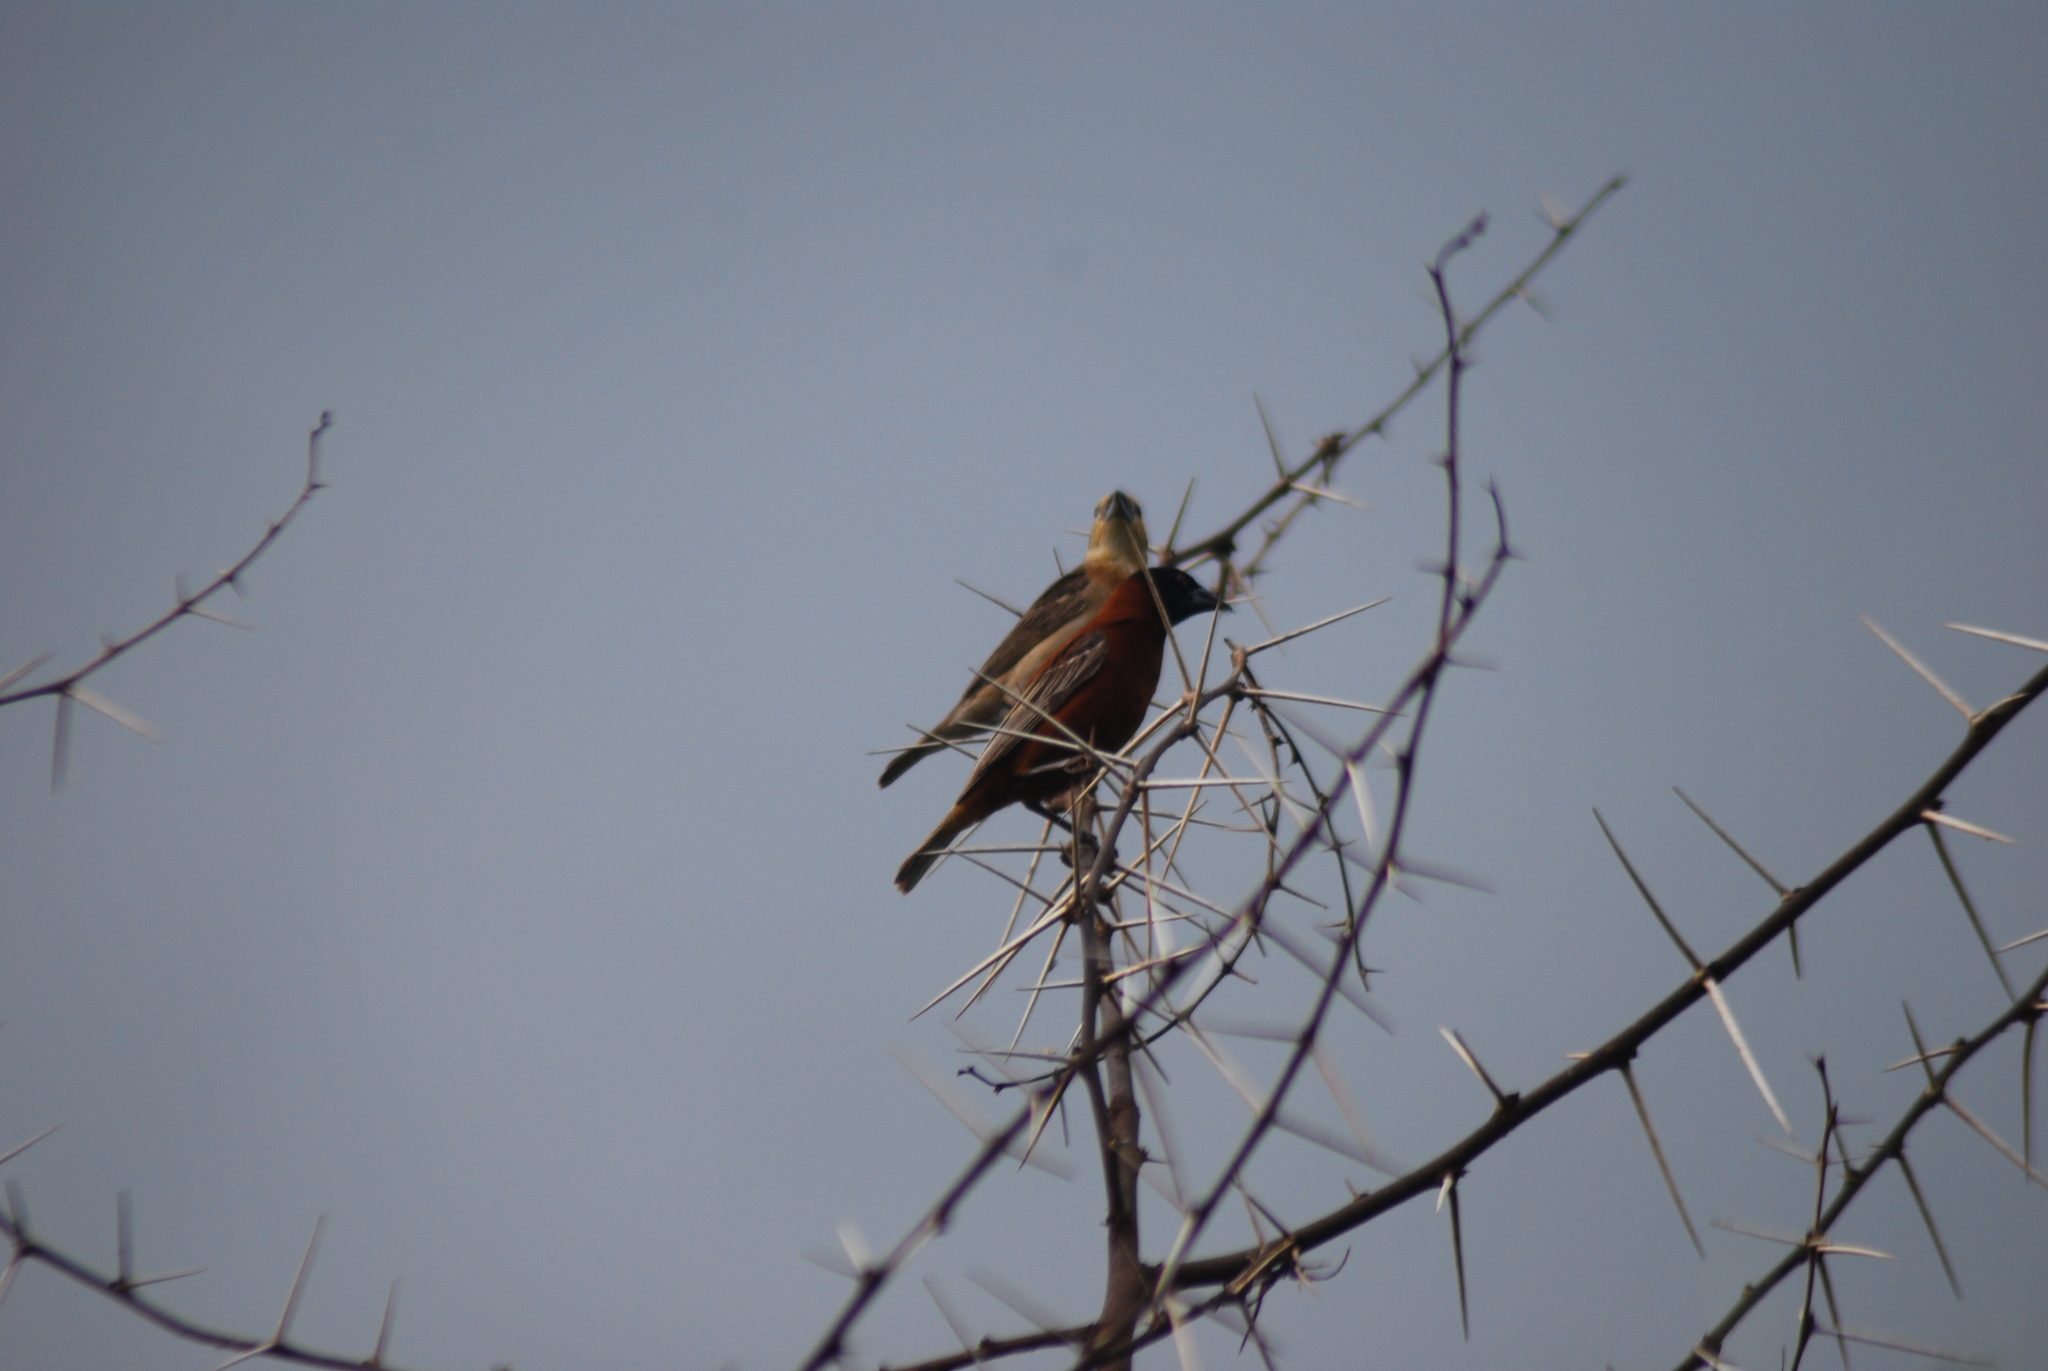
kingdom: Animalia
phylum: Chordata
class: Aves
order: Passeriformes
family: Ploceidae
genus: Ploceus
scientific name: Ploceus rubiginosus
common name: Chestnut weaver
